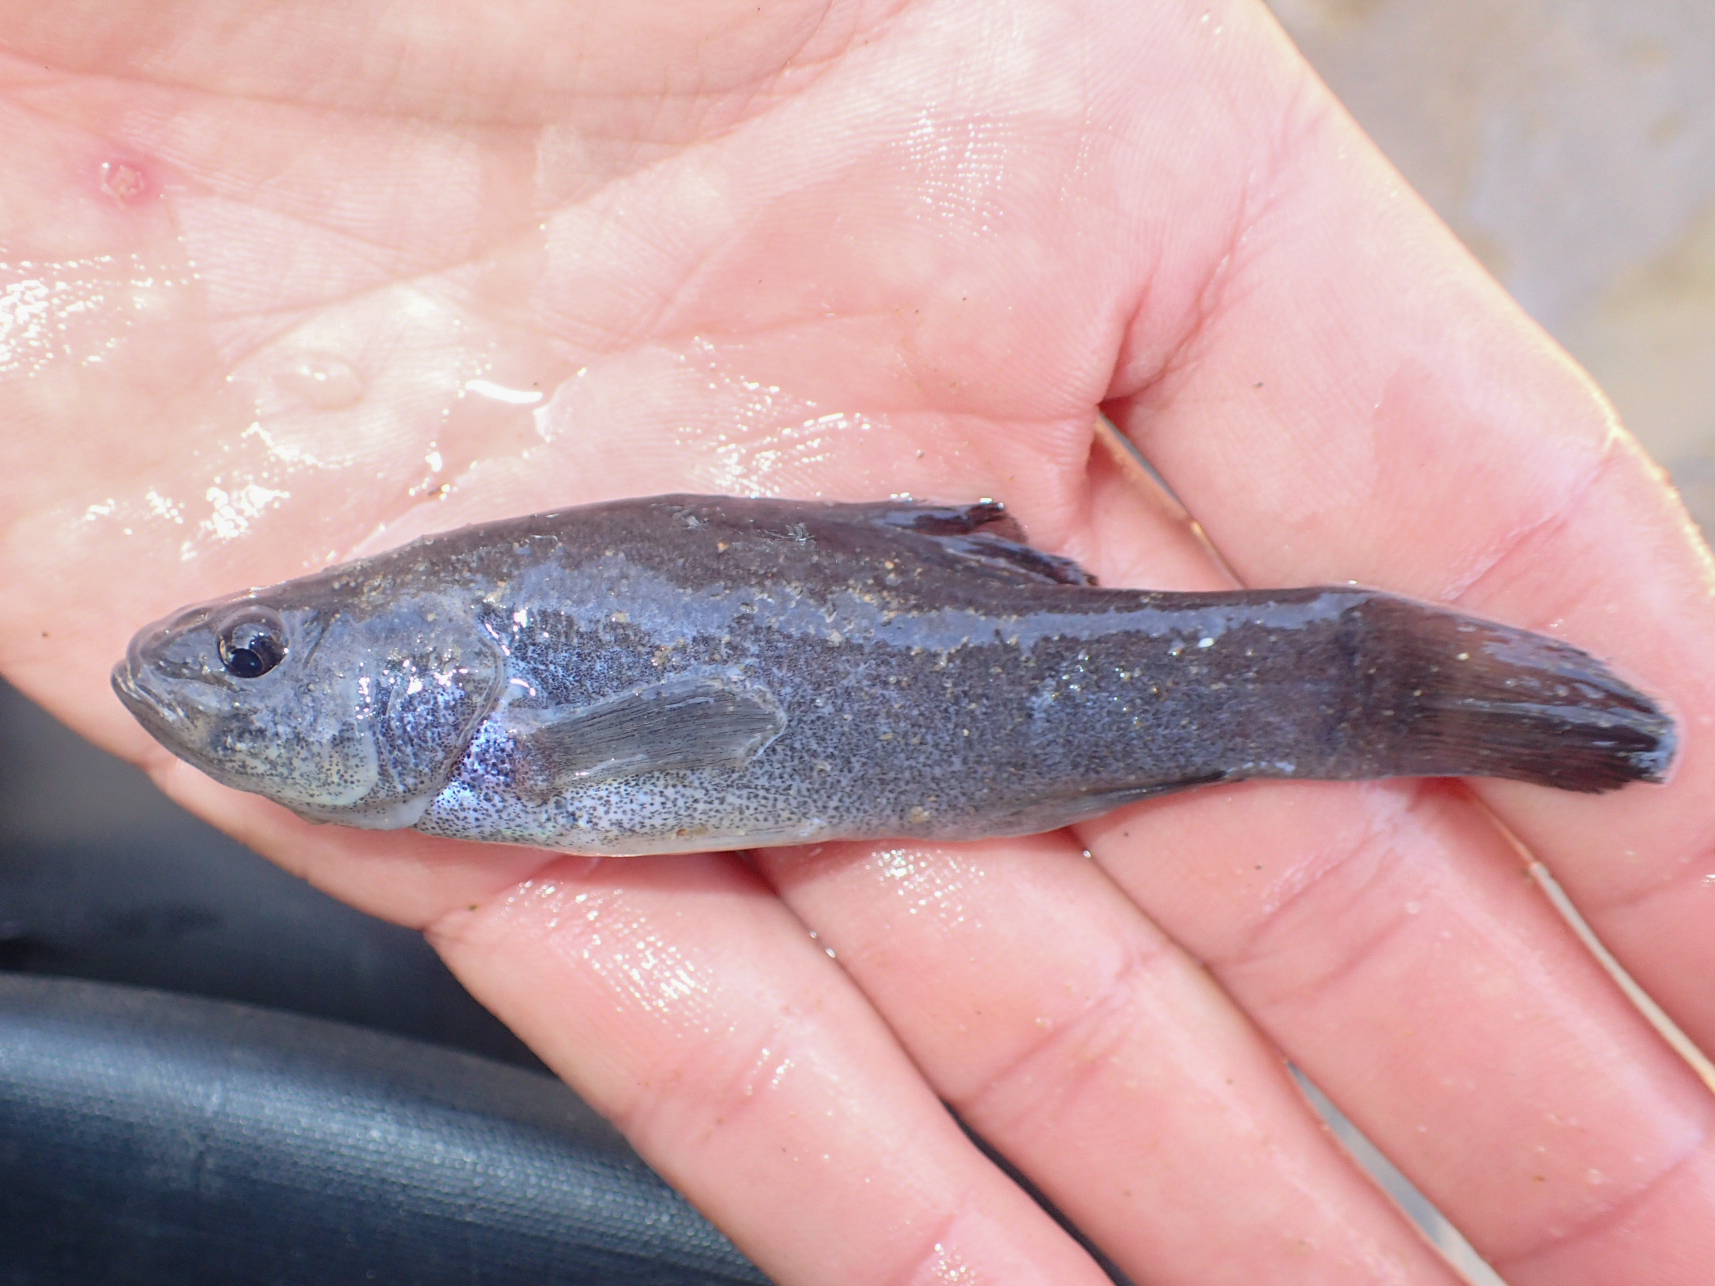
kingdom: Animalia
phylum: Chordata
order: Percopsiformes
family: Aphredoderidae
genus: Aphredoderus
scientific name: Aphredoderus sayanus
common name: Pirate perch
